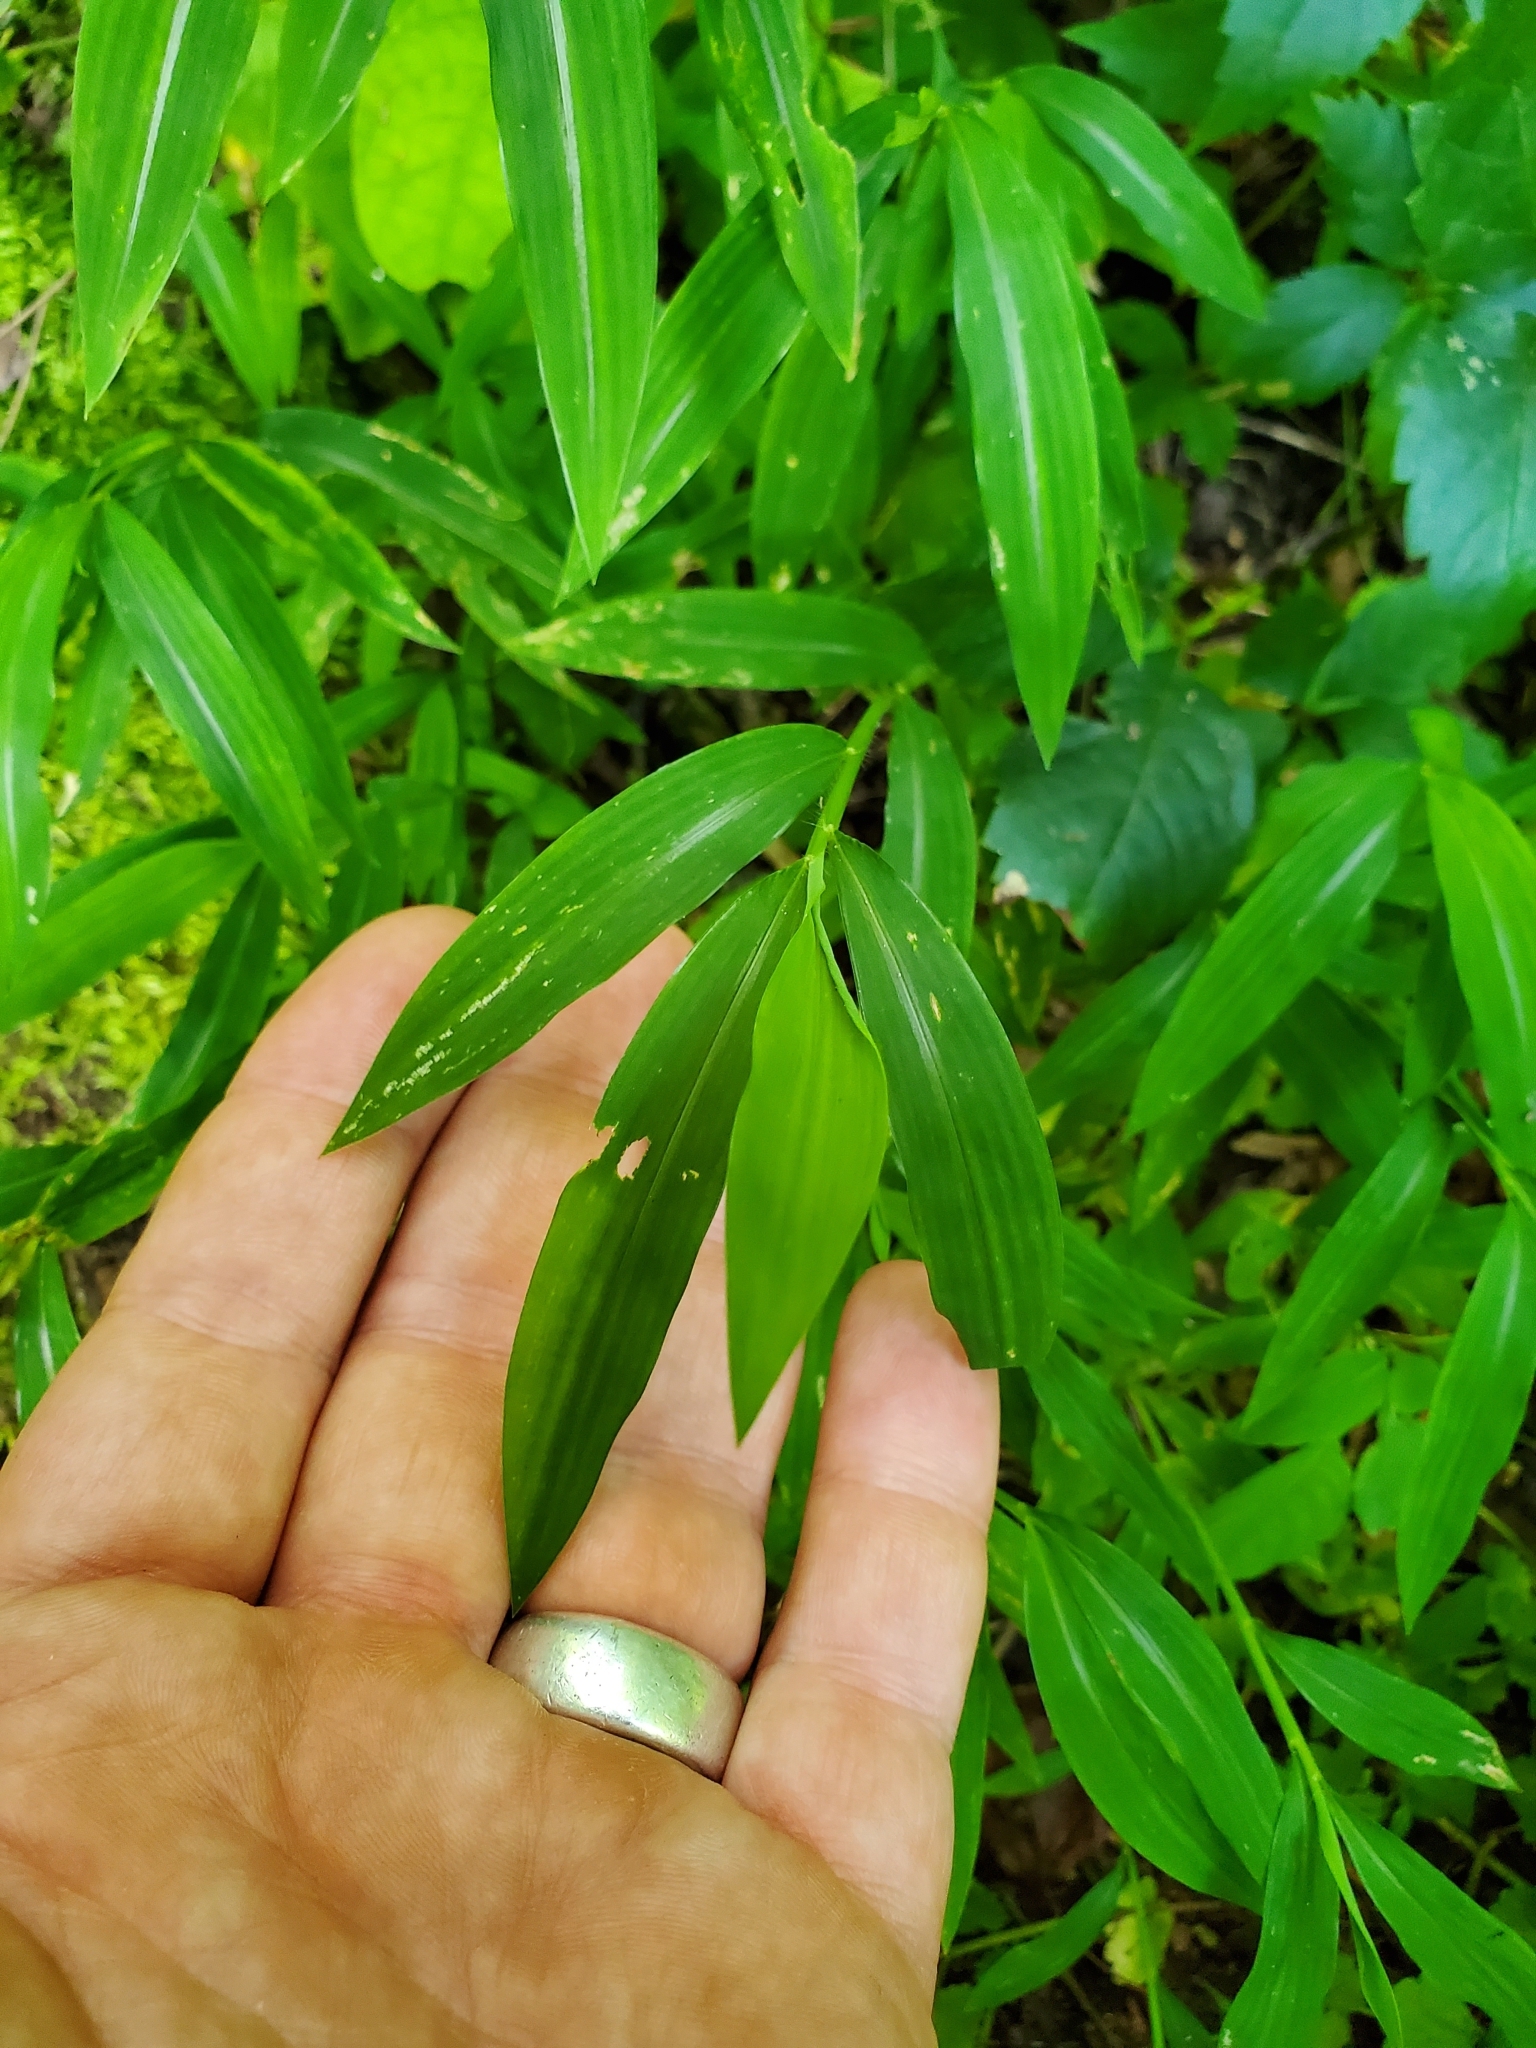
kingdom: Plantae
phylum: Tracheophyta
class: Liliopsida
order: Poales
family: Poaceae
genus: Microstegium
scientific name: Microstegium vimineum
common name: Japanese stiltgrass
